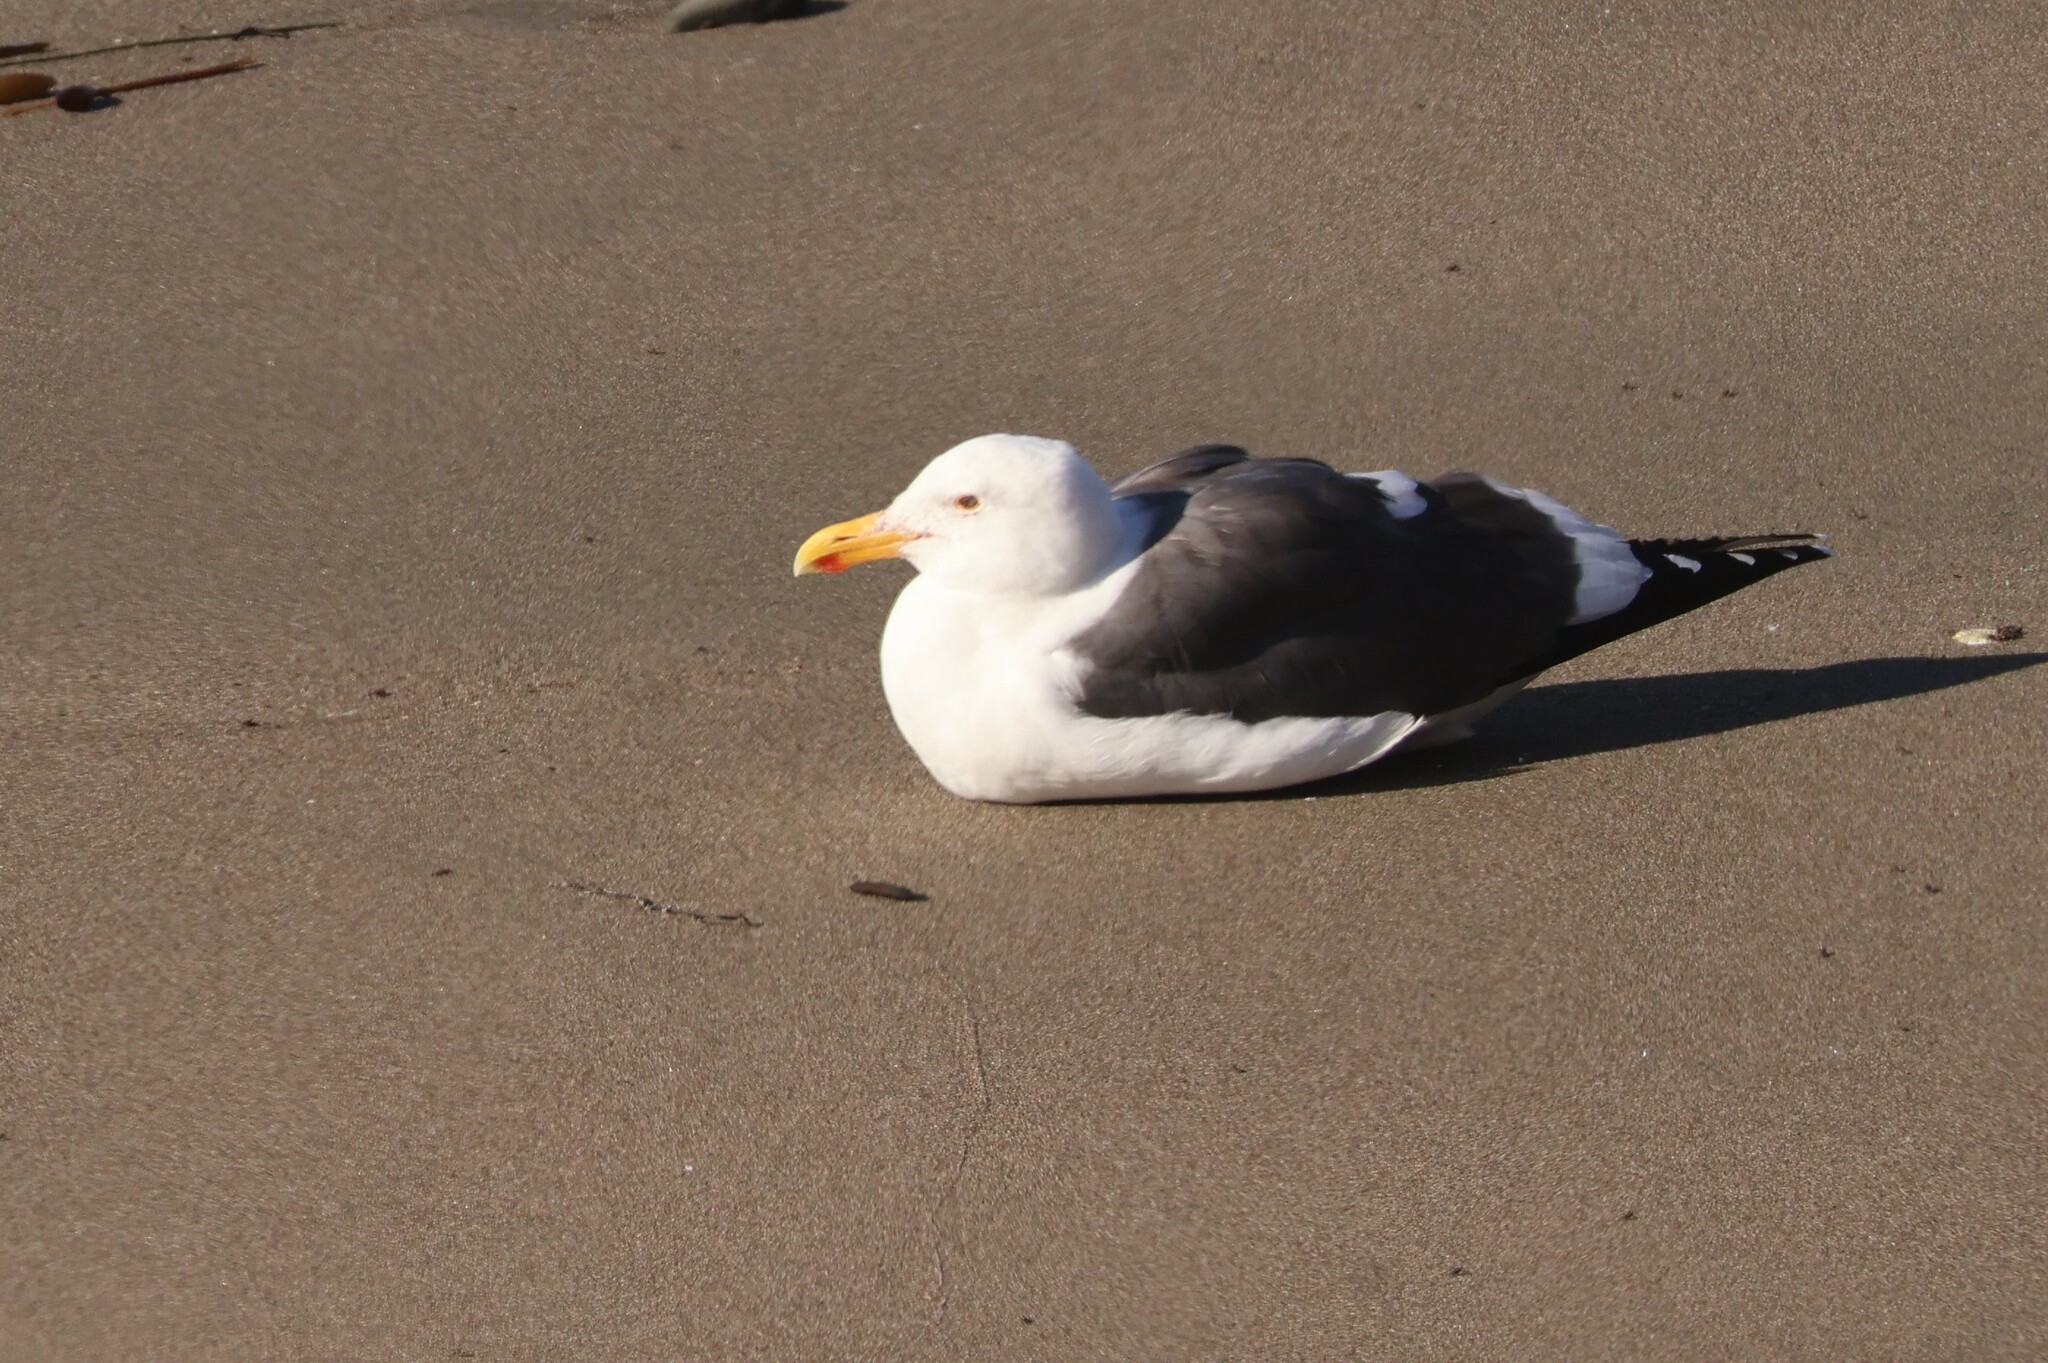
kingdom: Animalia
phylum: Chordata
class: Aves
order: Charadriiformes
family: Laridae
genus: Larus
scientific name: Larus occidentalis
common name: Western gull
